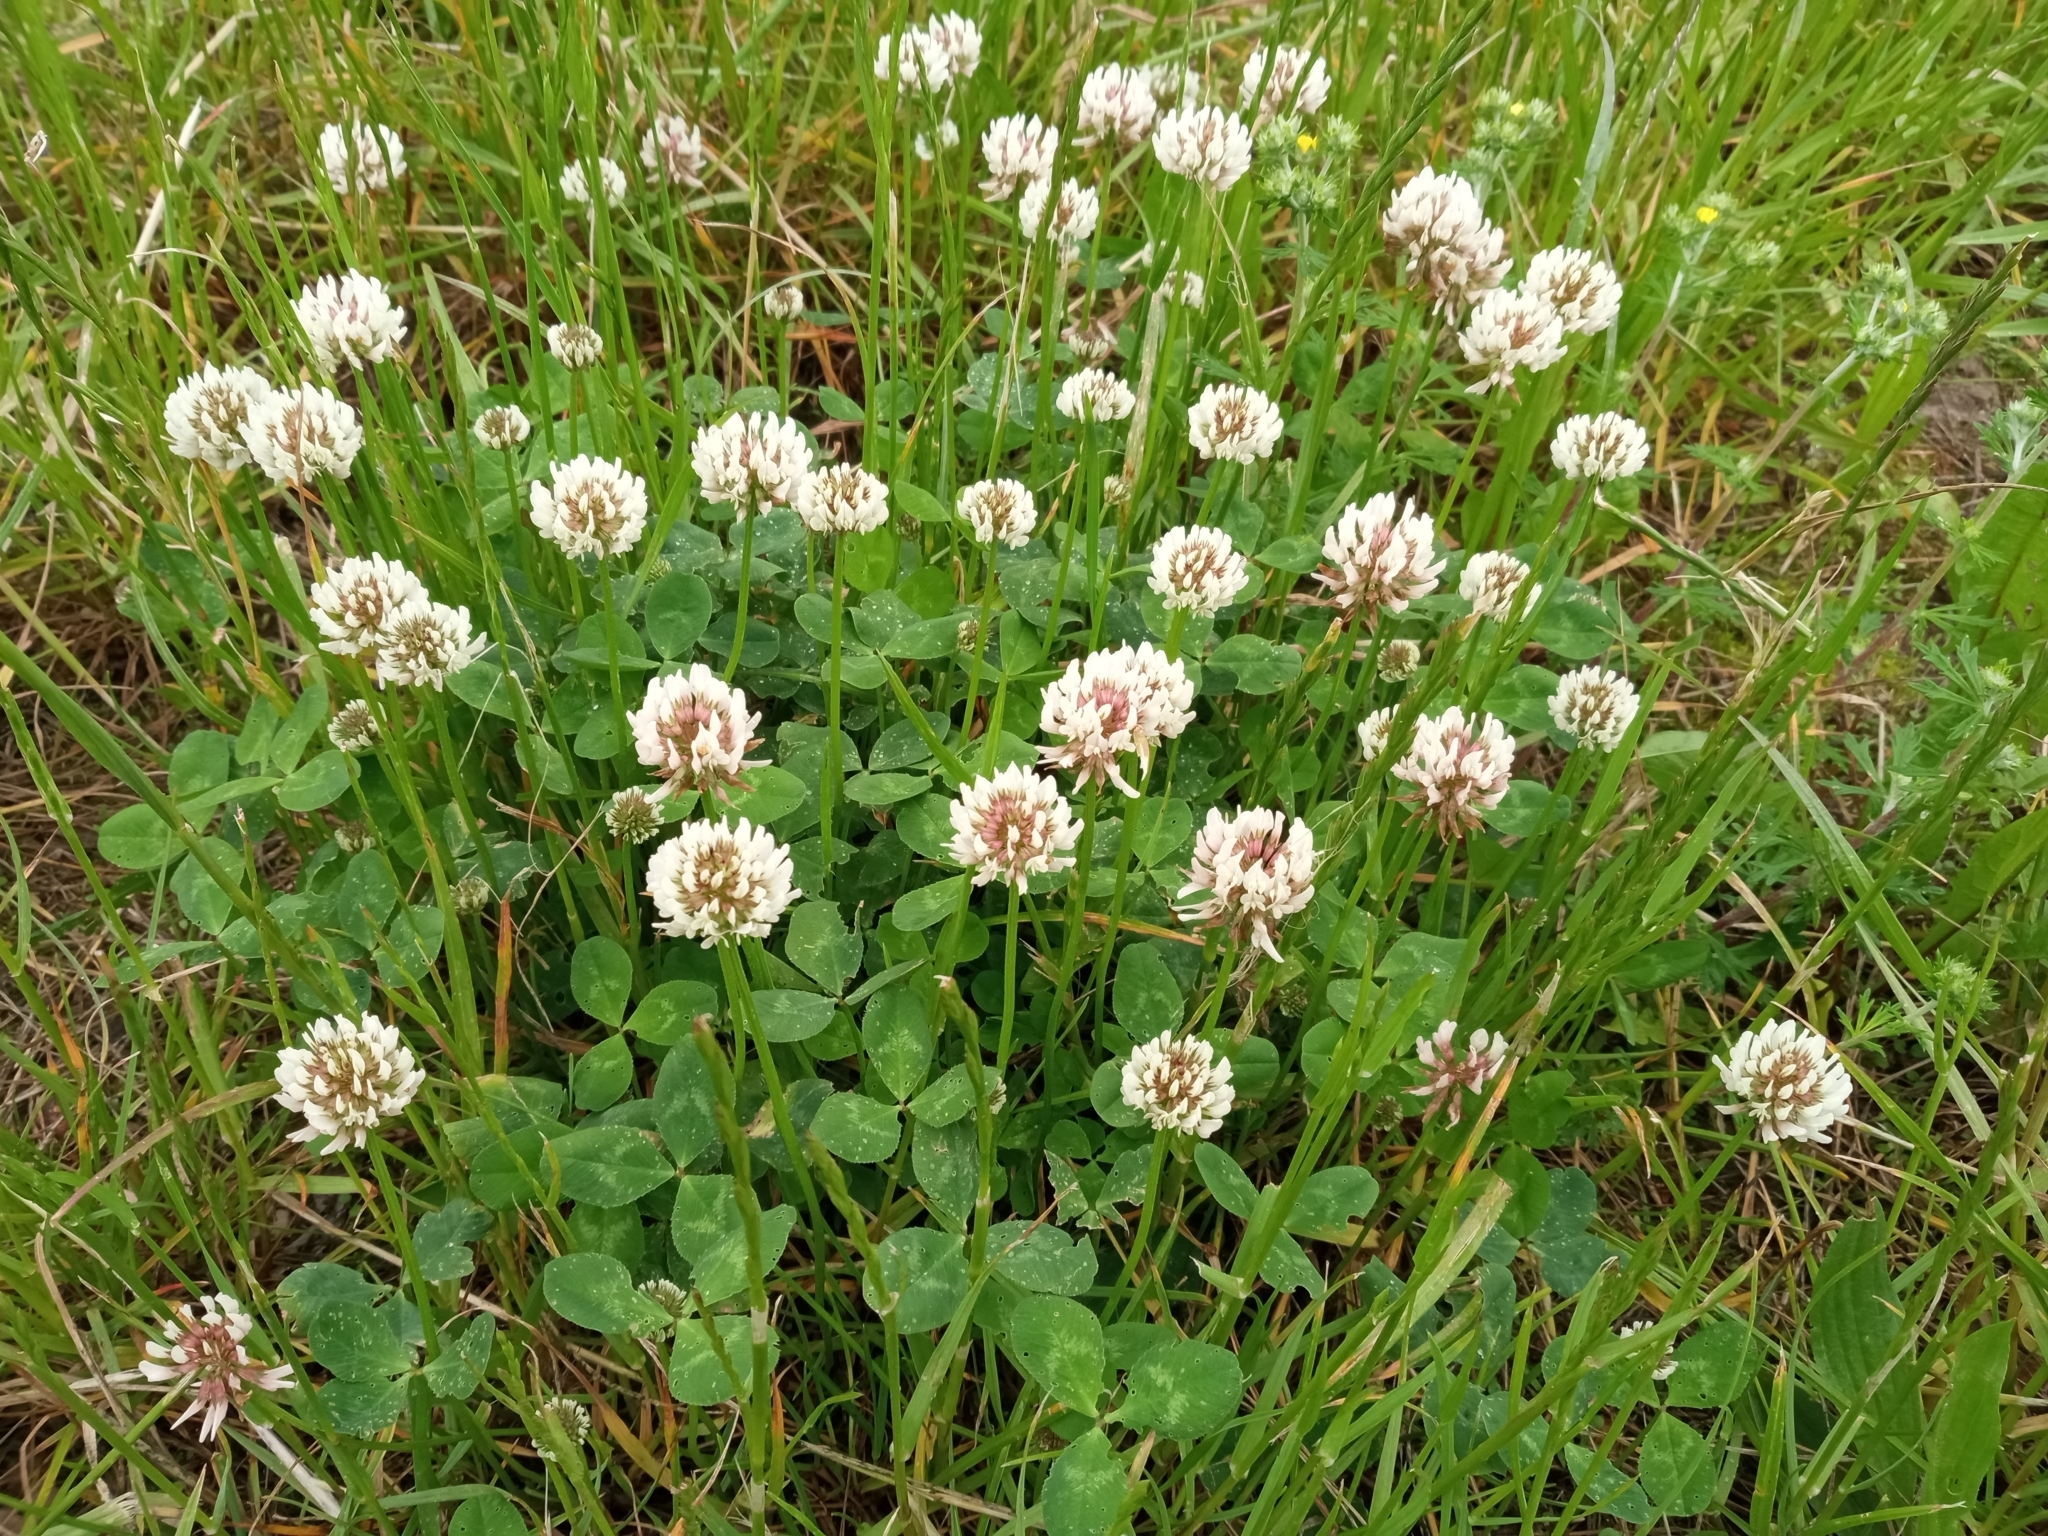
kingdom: Plantae
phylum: Tracheophyta
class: Magnoliopsida
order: Fabales
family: Fabaceae
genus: Trifolium
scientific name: Trifolium repens
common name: White clover
